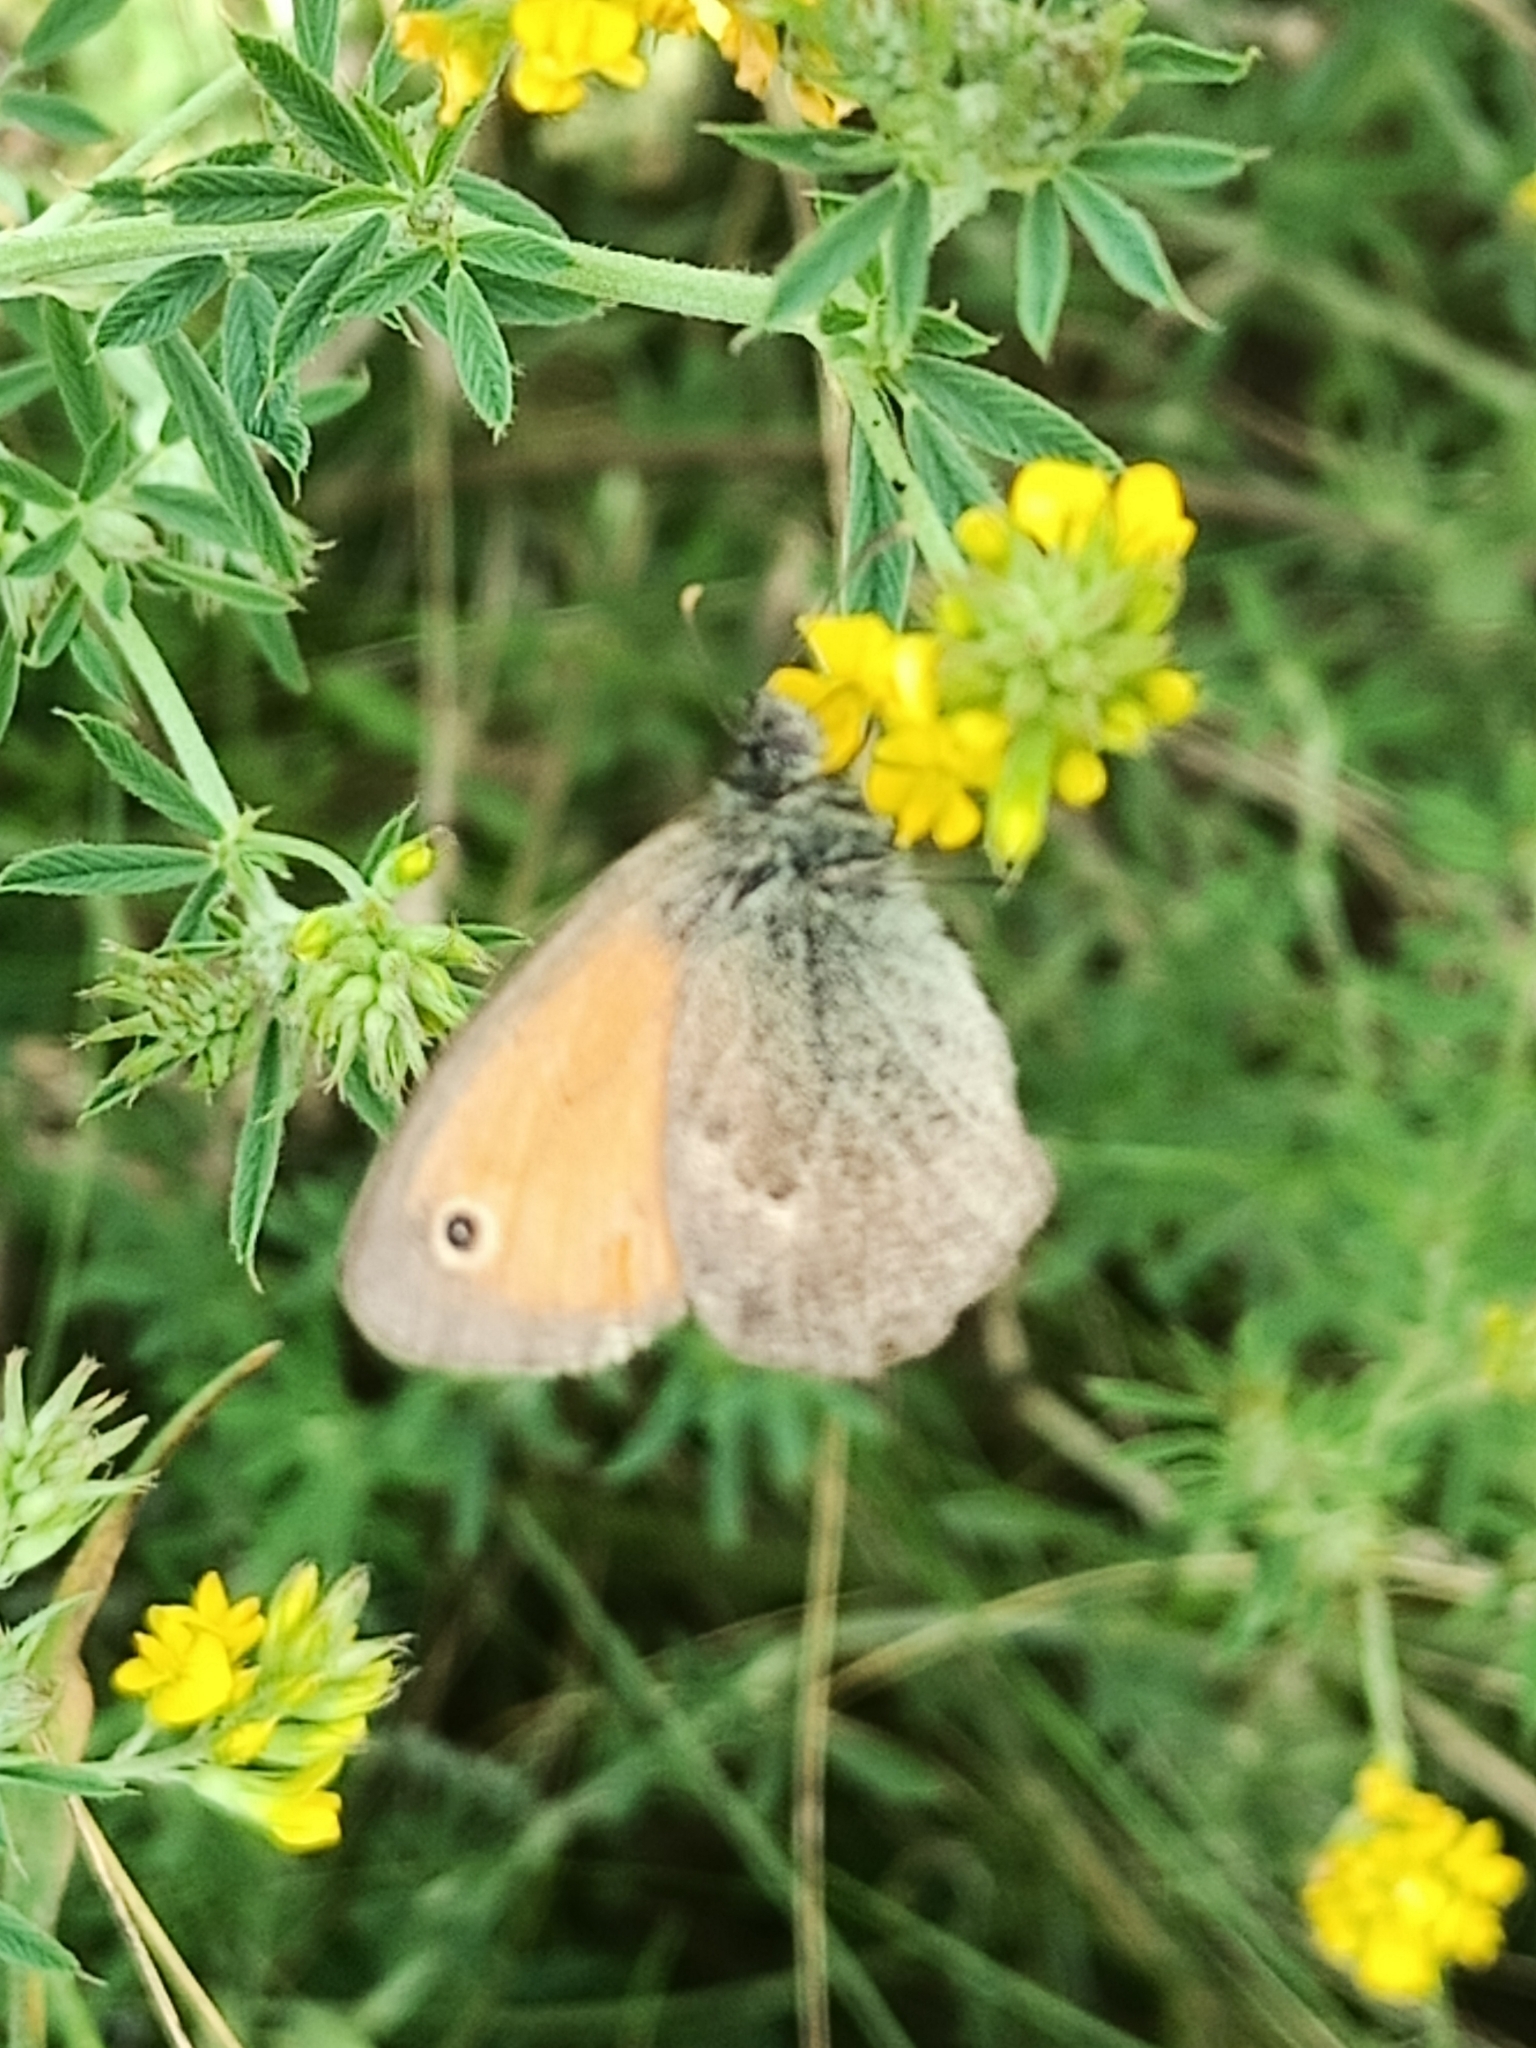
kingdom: Animalia
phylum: Arthropoda
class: Insecta
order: Lepidoptera
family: Nymphalidae
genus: Coenonympha
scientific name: Coenonympha pamphilus
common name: Small heath
